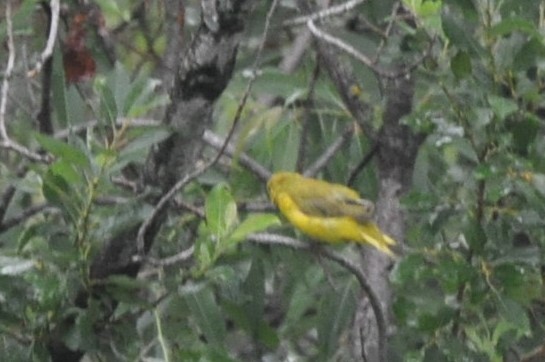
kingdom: Animalia
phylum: Chordata
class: Aves
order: Passeriformes
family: Parulidae
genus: Setophaga
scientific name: Setophaga petechia
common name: Yellow warbler
